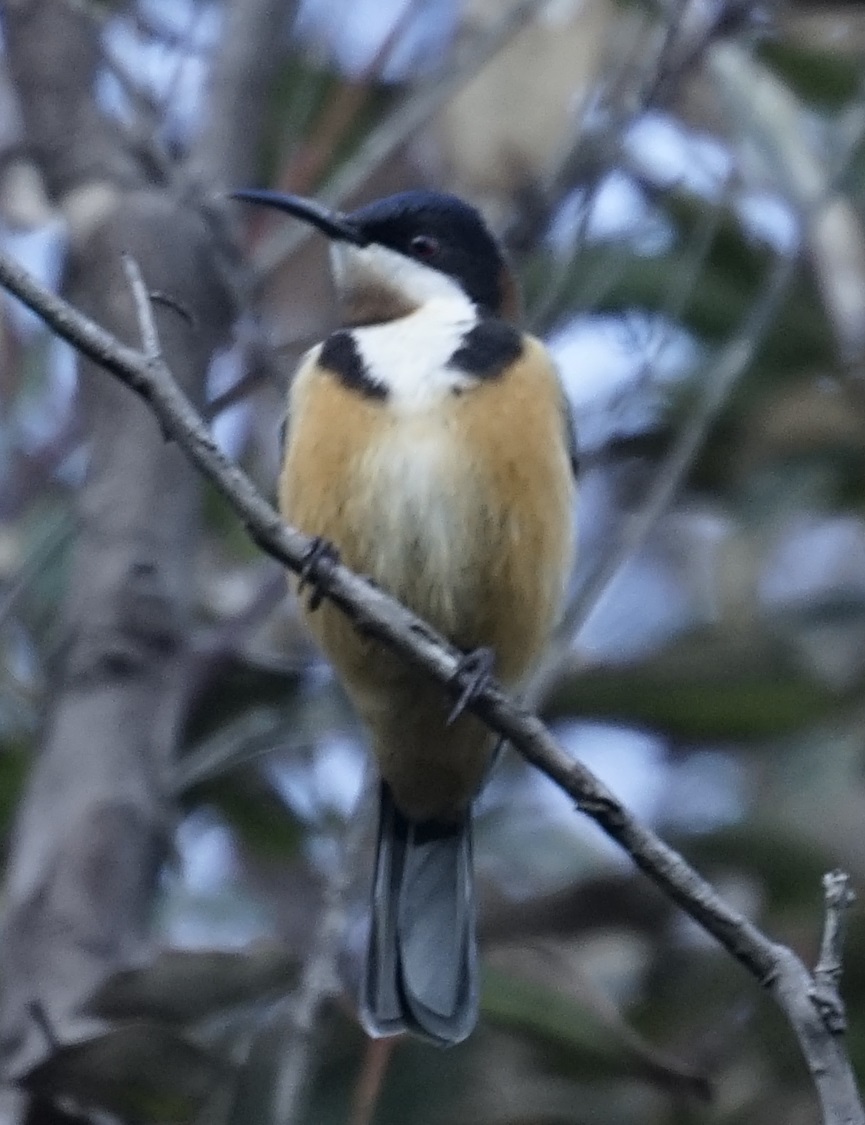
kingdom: Animalia
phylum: Chordata
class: Aves
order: Passeriformes
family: Meliphagidae
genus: Acanthorhynchus
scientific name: Acanthorhynchus tenuirostris
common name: Eastern spinebill
